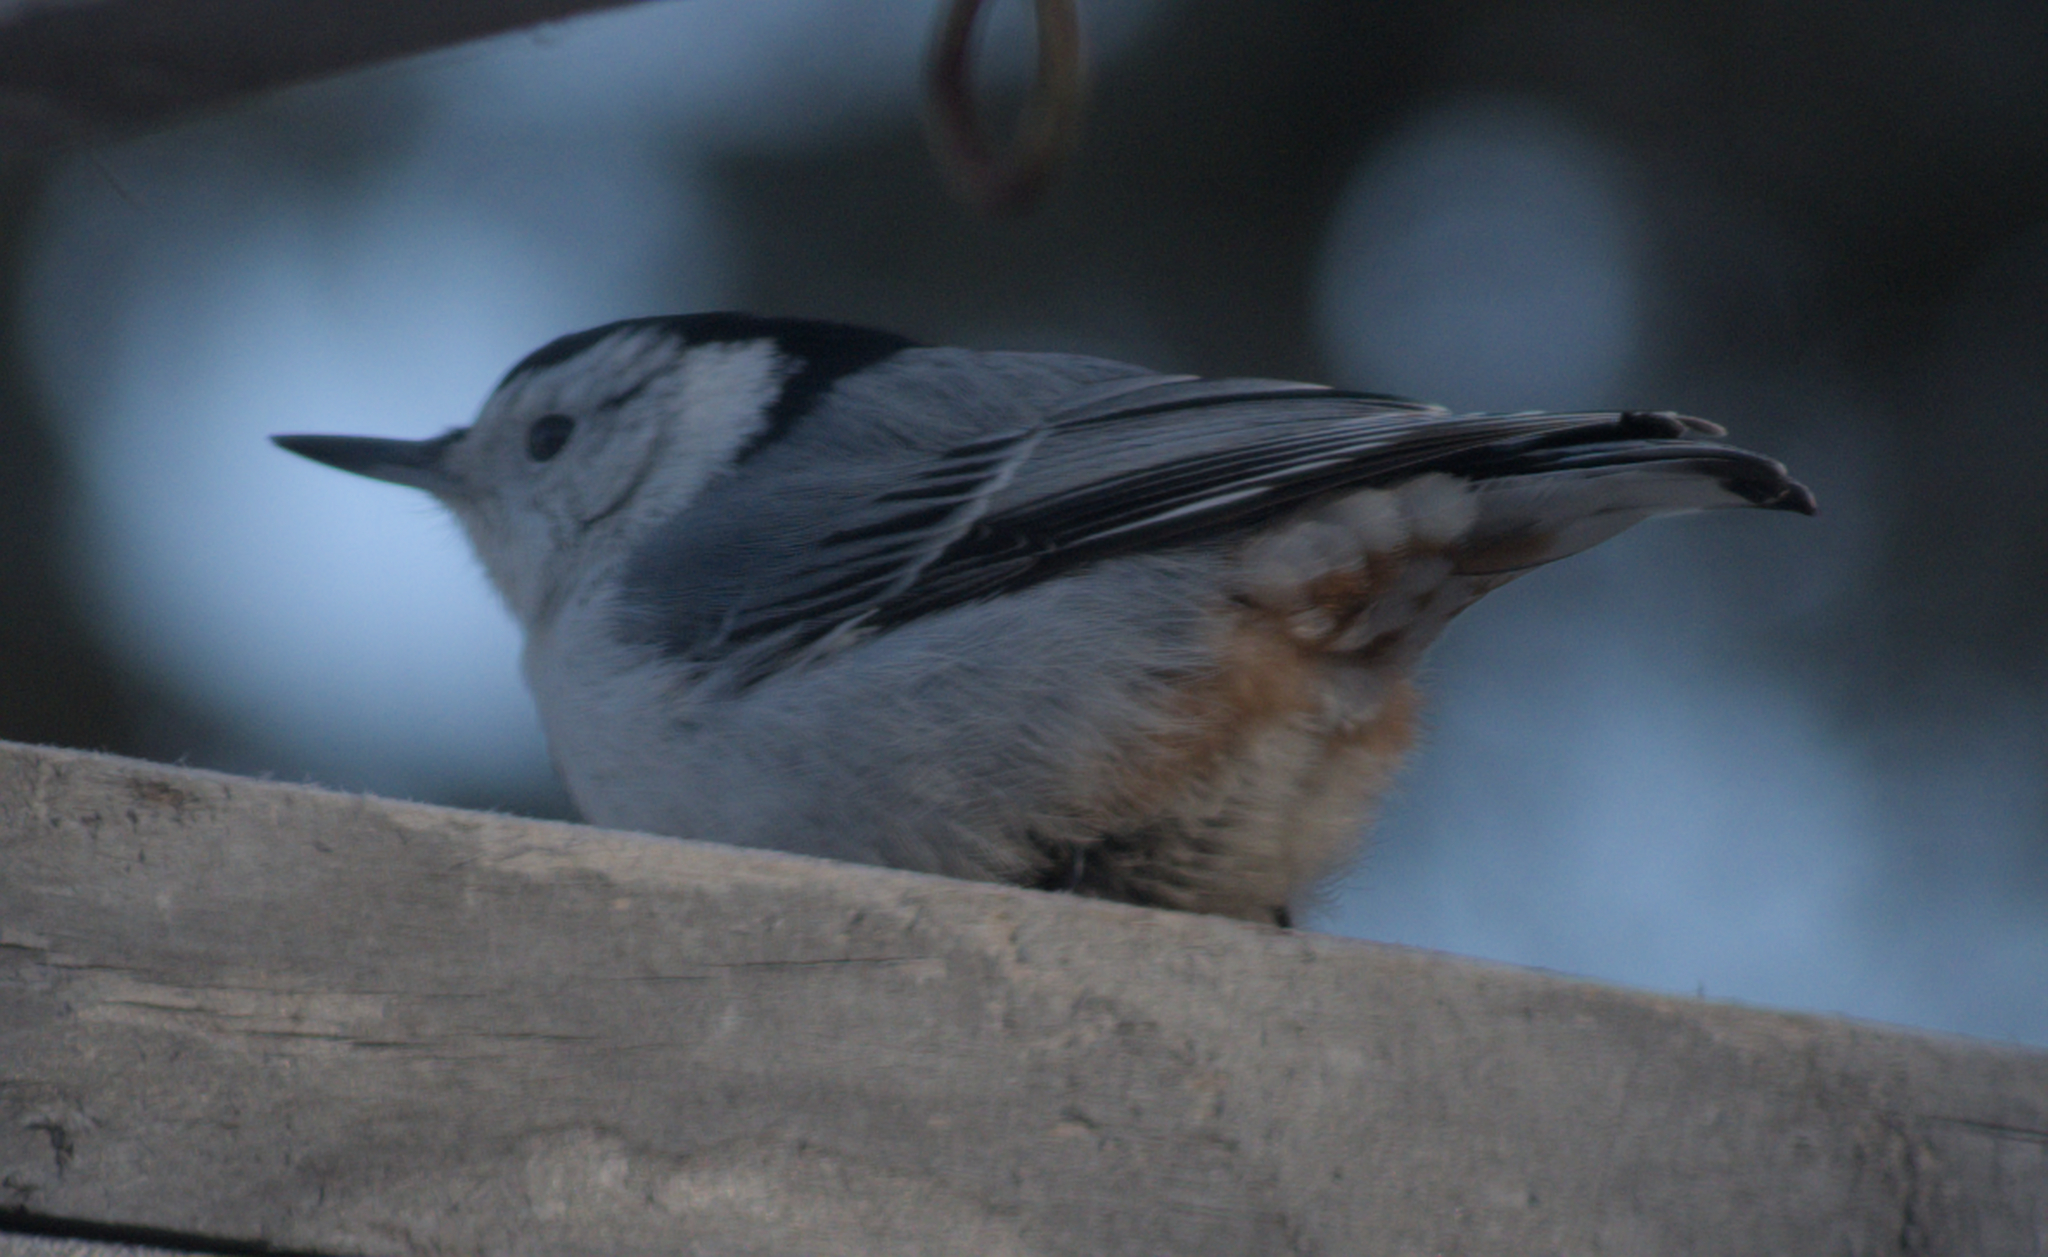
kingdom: Animalia
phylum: Chordata
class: Aves
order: Passeriformes
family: Sittidae
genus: Sitta
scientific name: Sitta carolinensis
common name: White-breasted nuthatch
